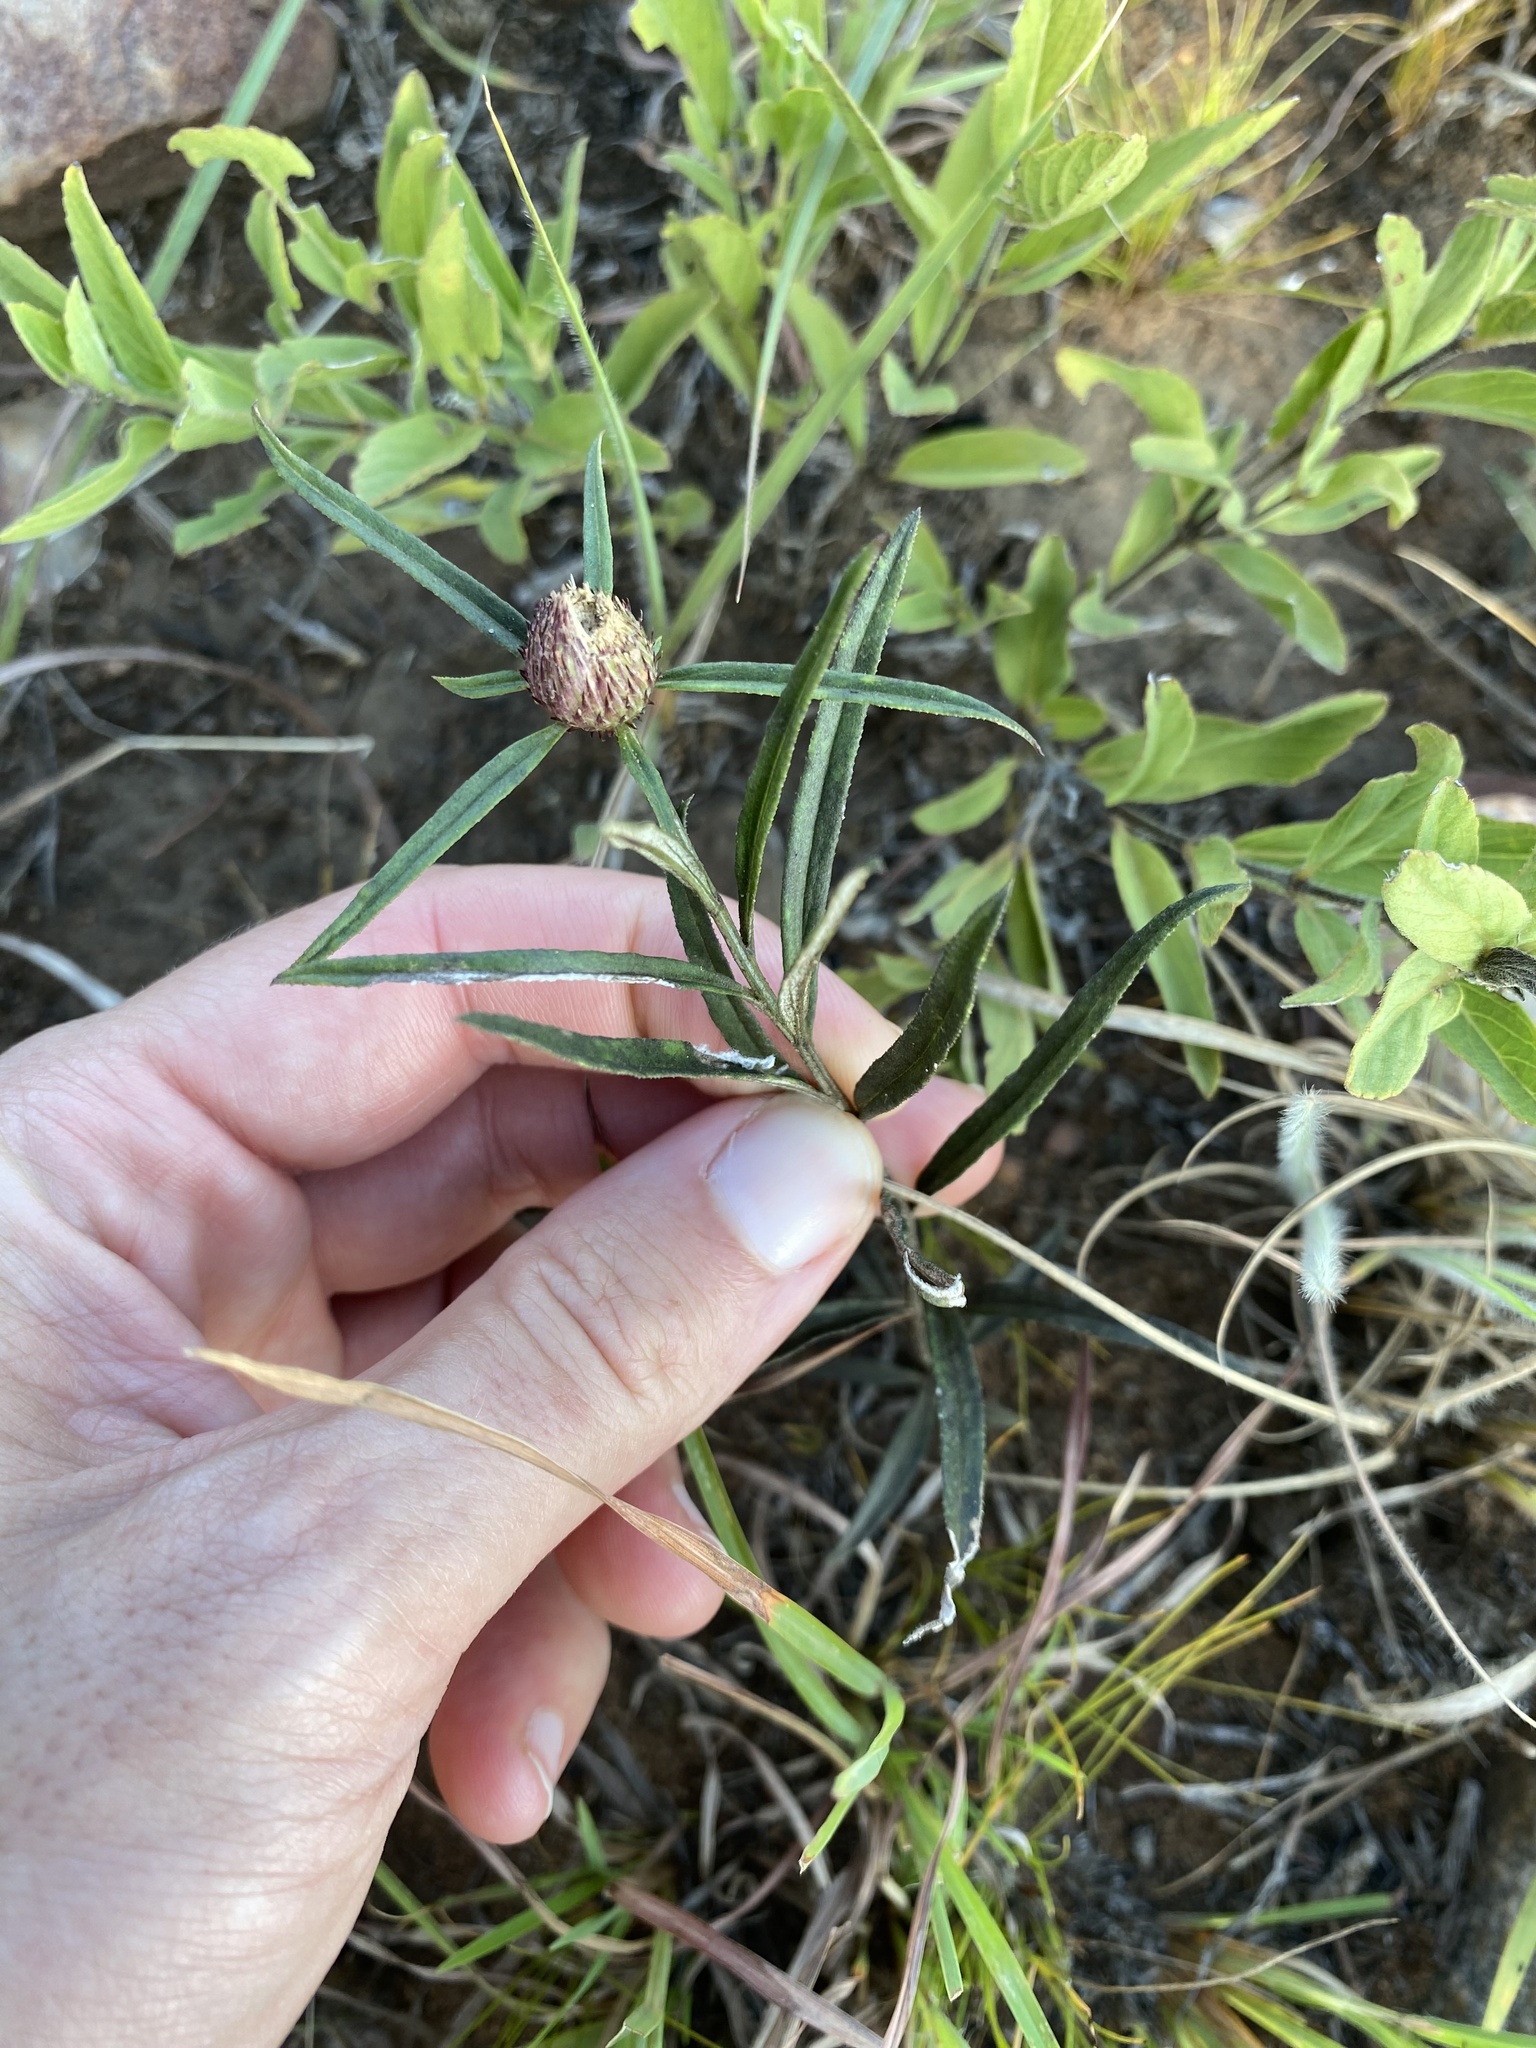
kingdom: Plantae
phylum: Tracheophyta
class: Magnoliopsida
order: Asterales
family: Asteraceae
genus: Dicoma
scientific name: Dicoma anomala
